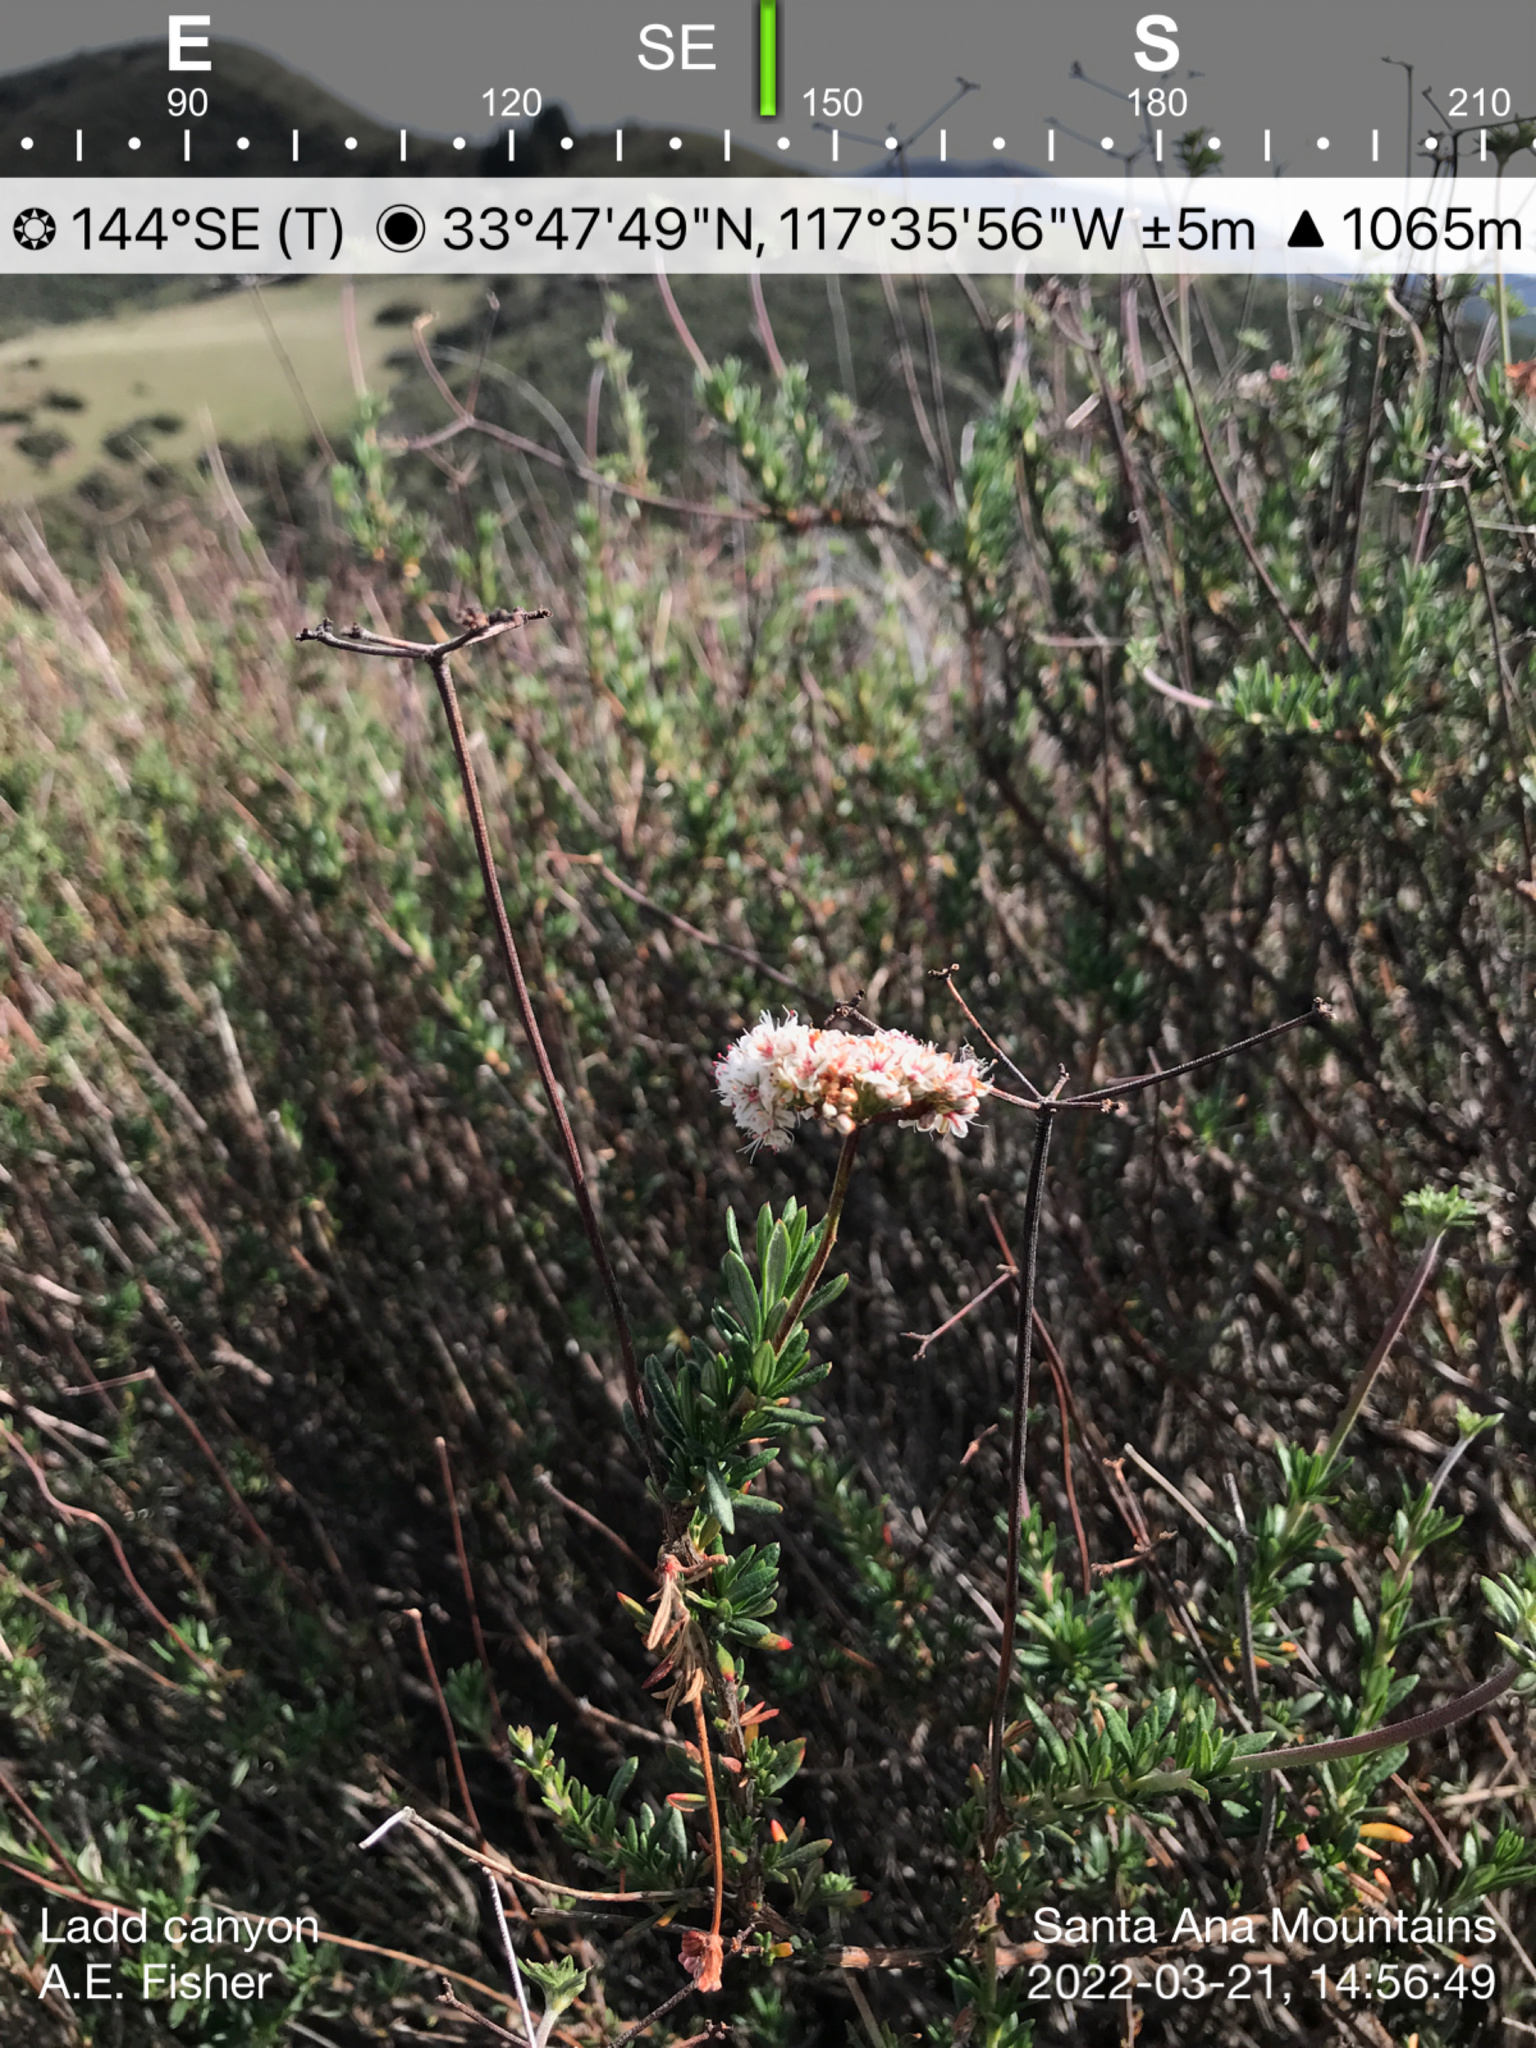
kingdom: Plantae
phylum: Tracheophyta
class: Magnoliopsida
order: Caryophyllales
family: Polygonaceae
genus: Eriogonum
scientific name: Eriogonum fasciculatum
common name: California wild buckwheat
